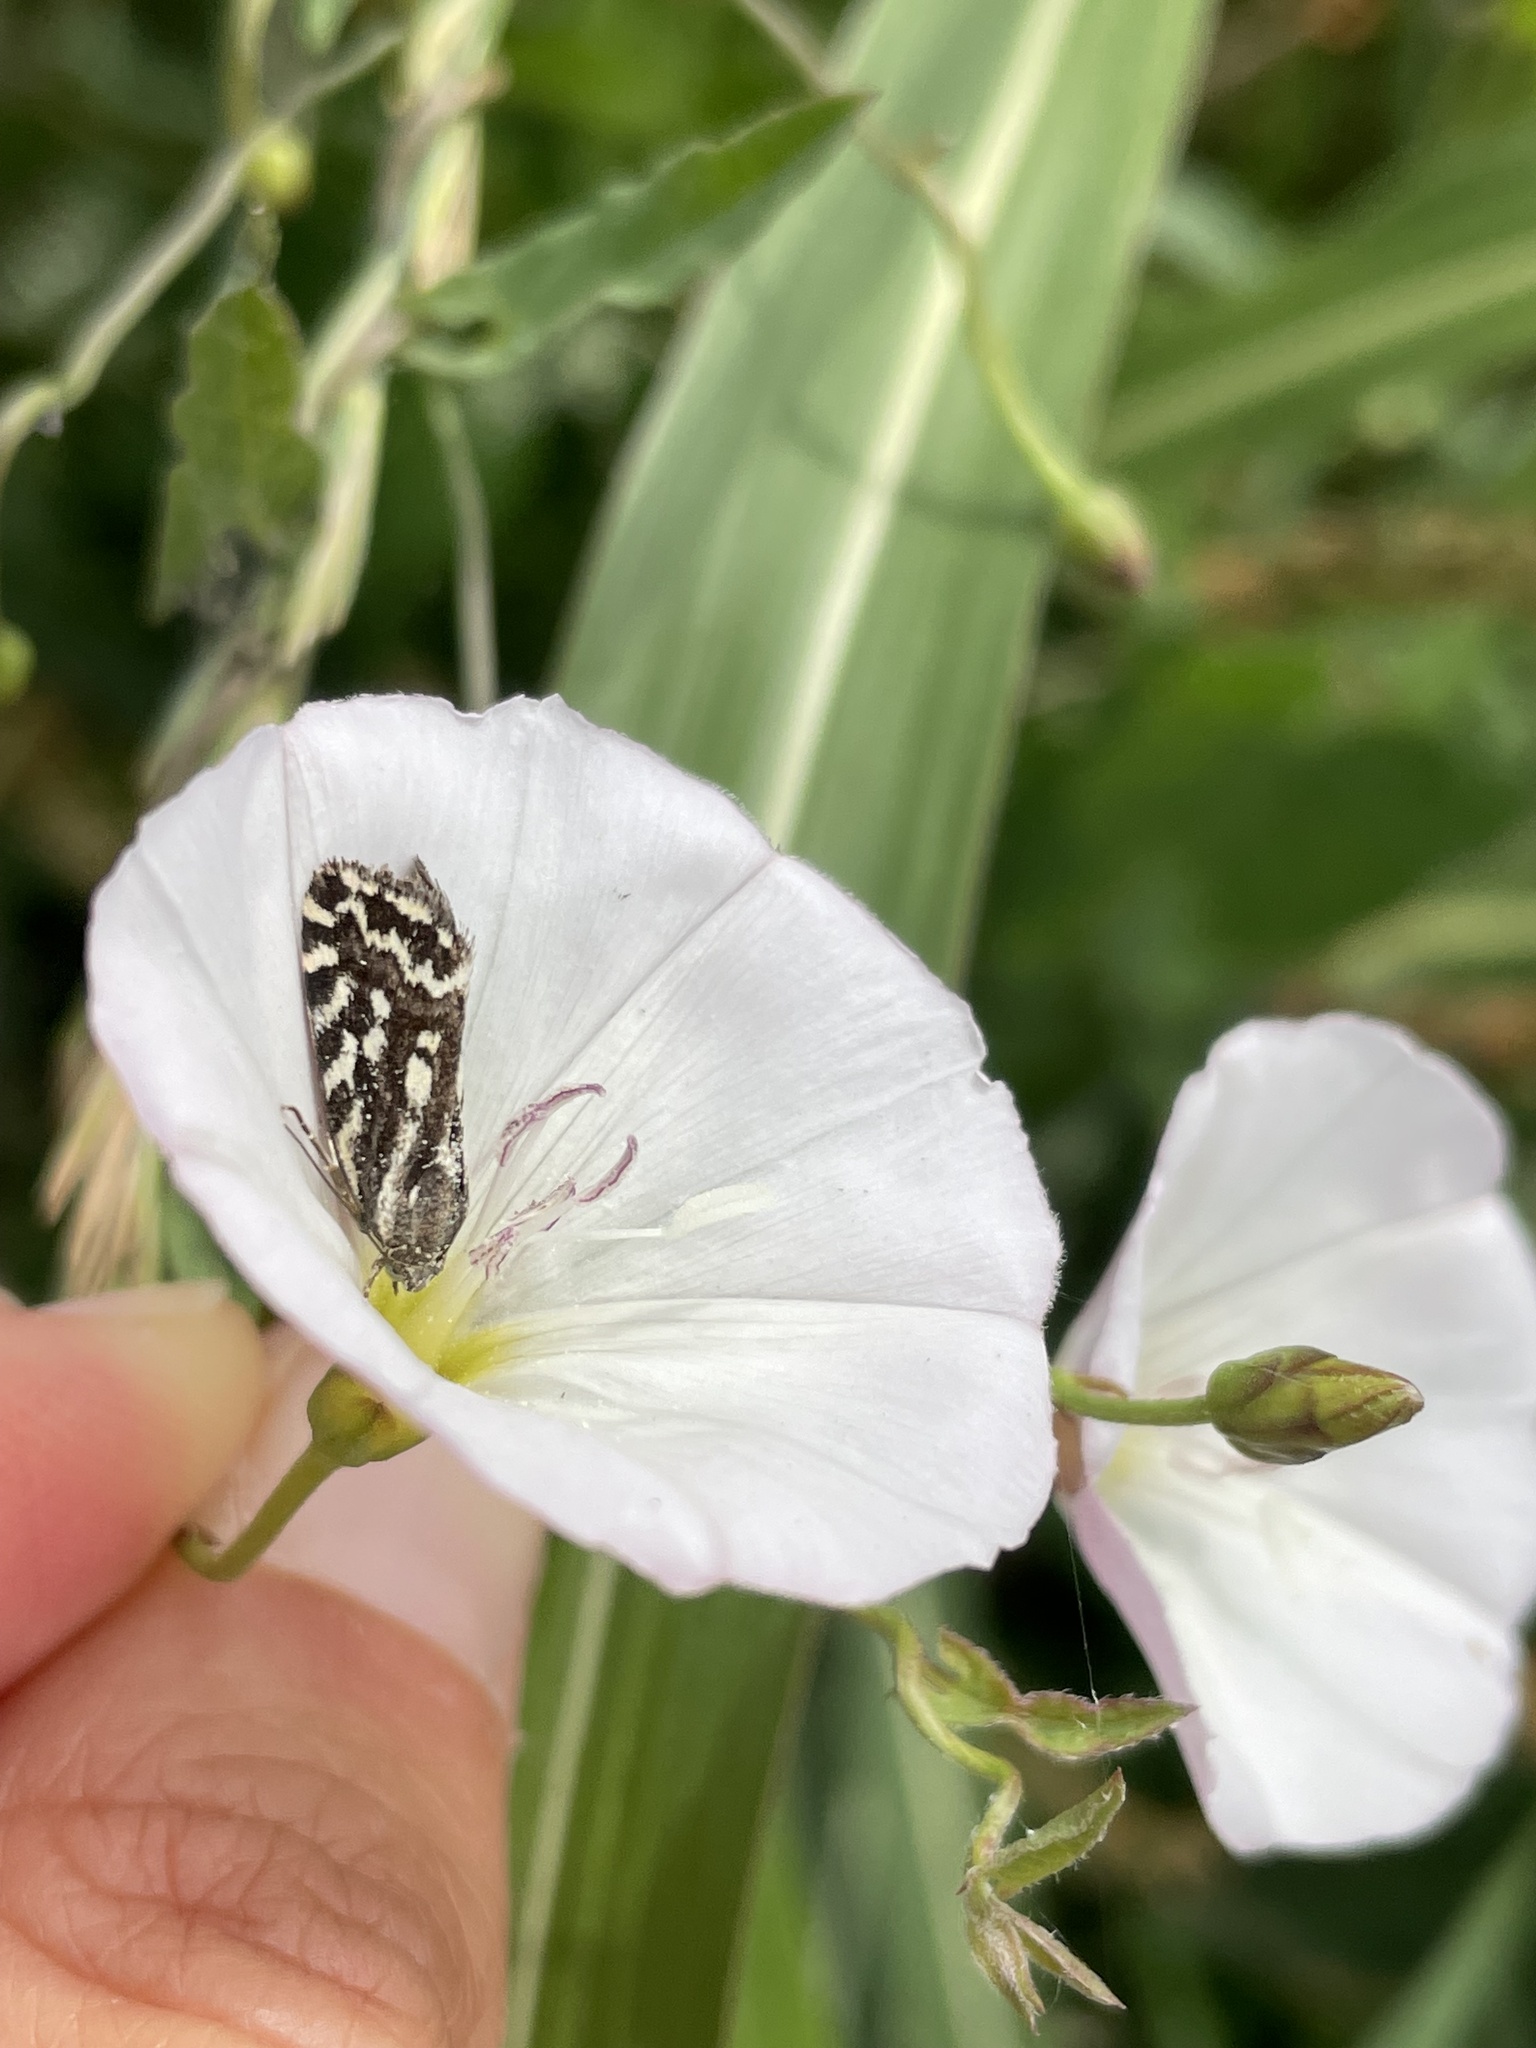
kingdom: Animalia
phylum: Arthropoda
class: Insecta
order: Lepidoptera
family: Noctuidae
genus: Acontia
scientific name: Acontia trabealis
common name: Spotted sulphur
